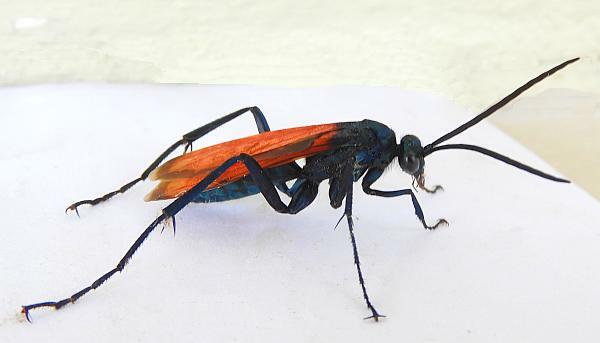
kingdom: Animalia
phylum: Arthropoda
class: Insecta
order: Hymenoptera
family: Pompilidae
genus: Pepsis
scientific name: Pepsis thisbe
